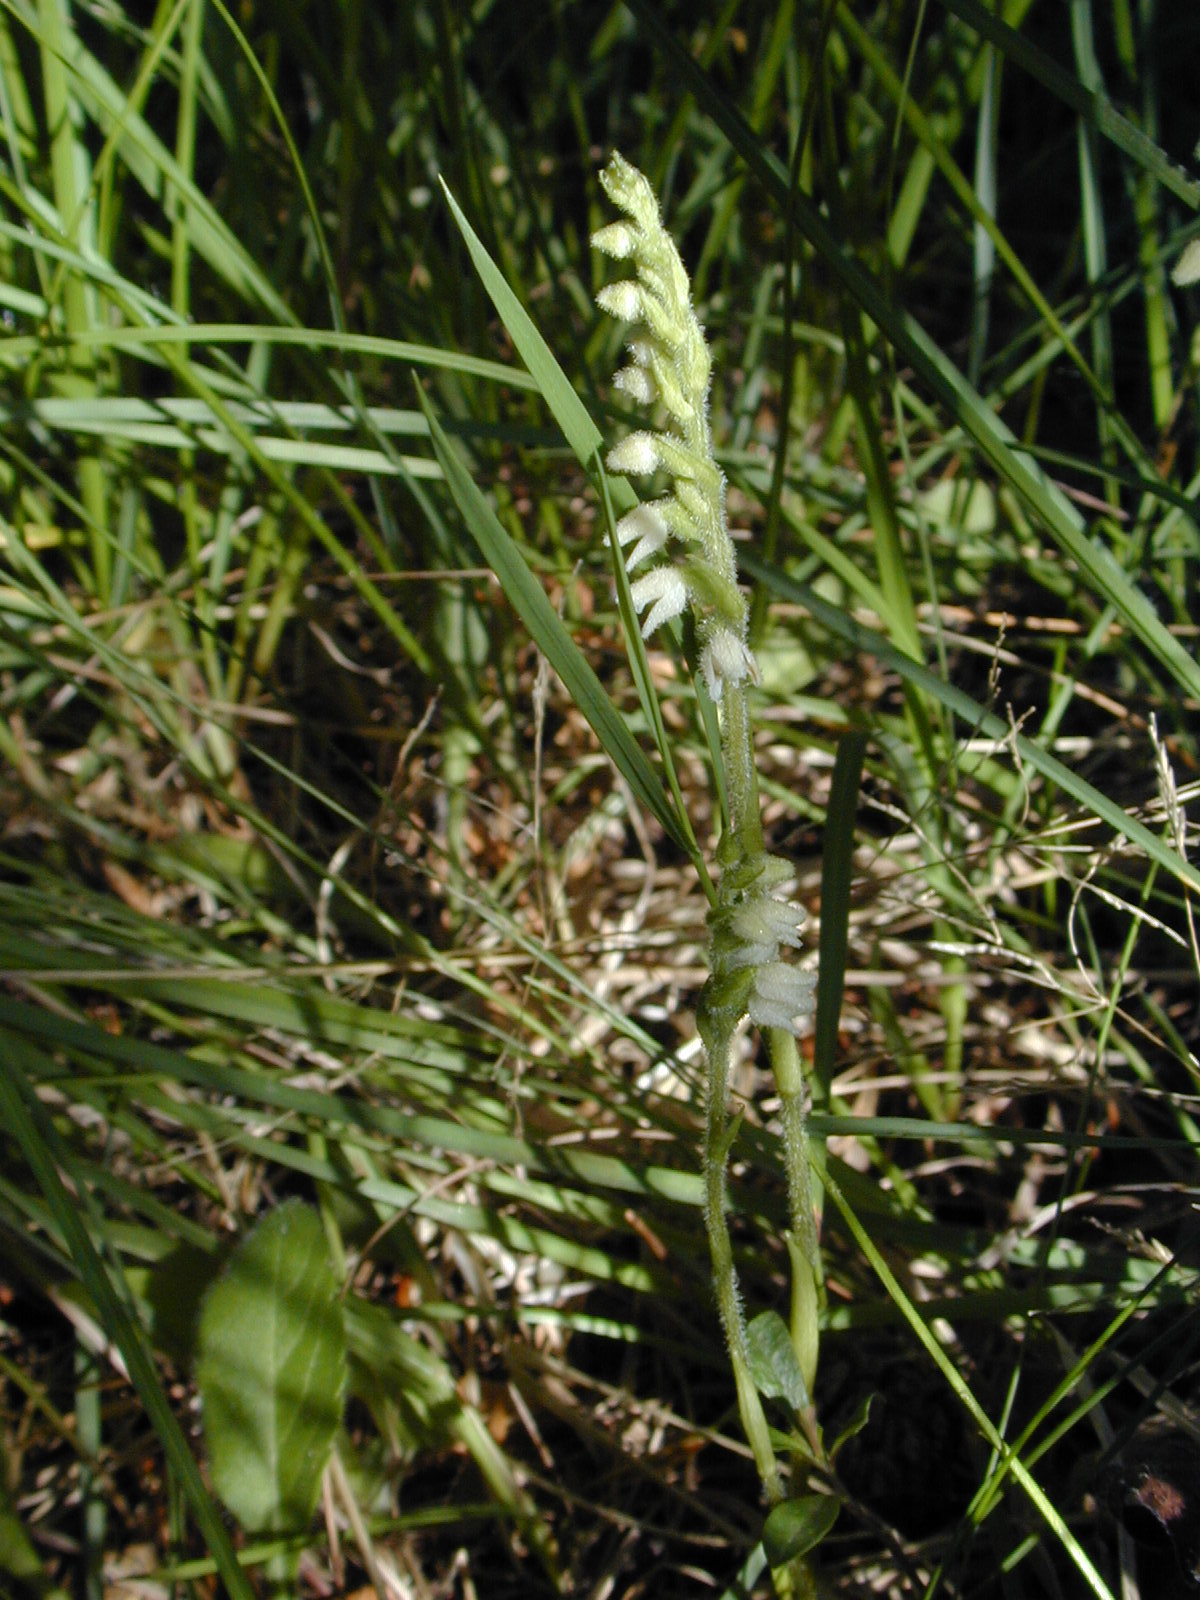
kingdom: Plantae
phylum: Tracheophyta
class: Liliopsida
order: Asparagales
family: Orchidaceae
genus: Goodyera
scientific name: Goodyera repens
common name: Creeping lady's-tresses
